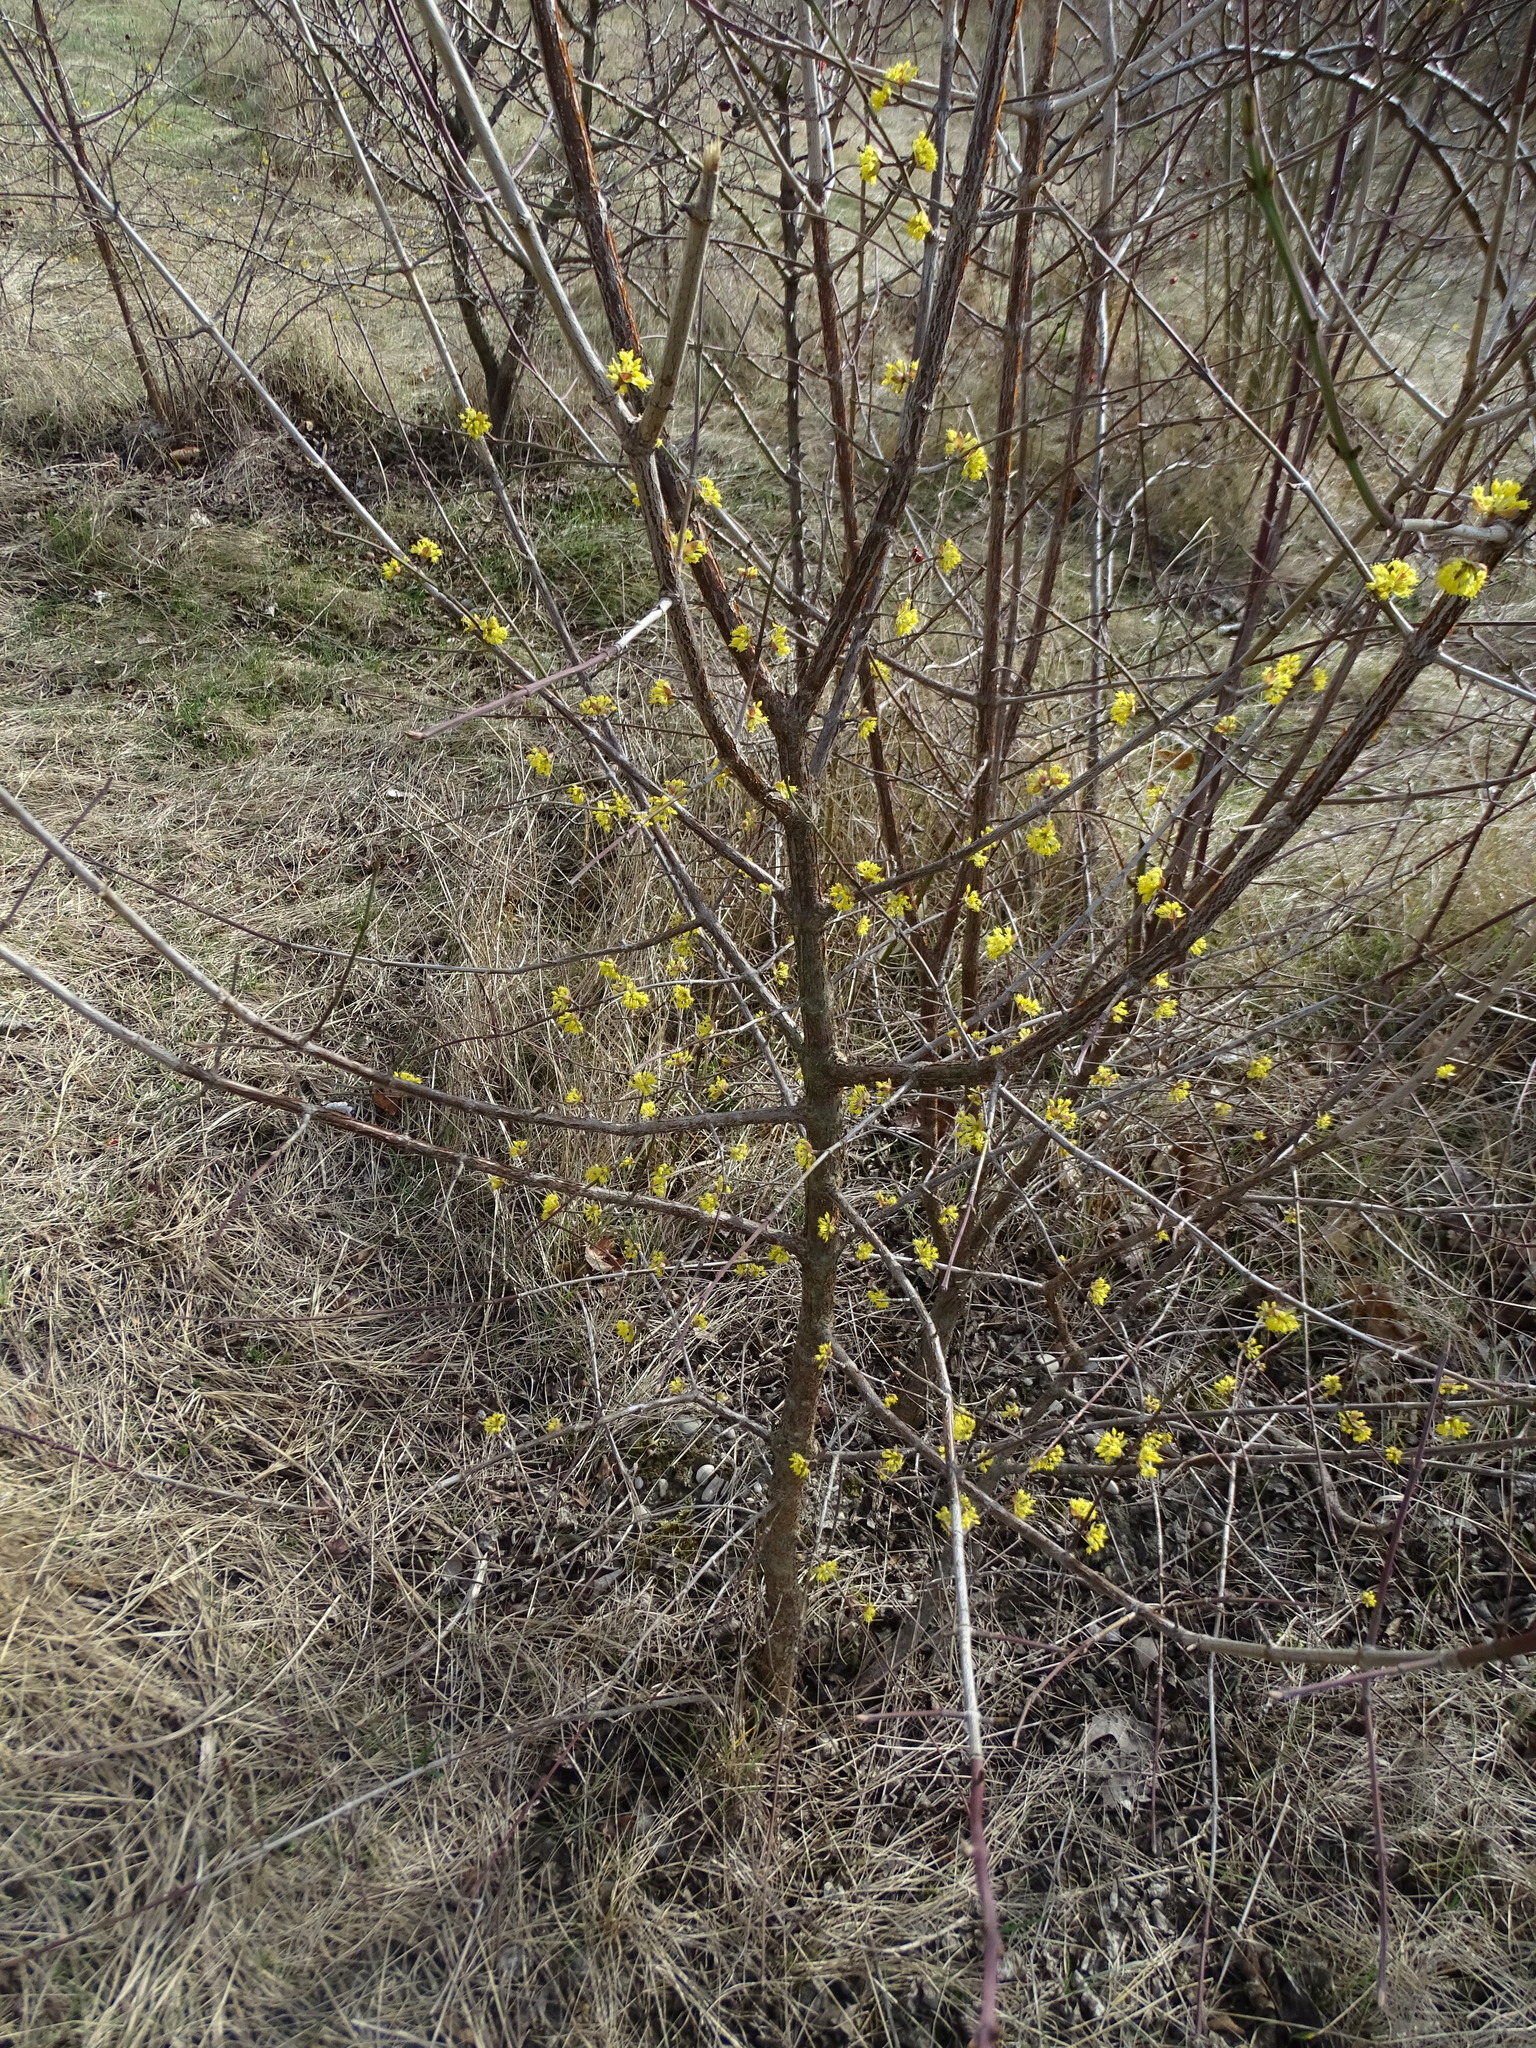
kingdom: Plantae
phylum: Tracheophyta
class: Magnoliopsida
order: Cornales
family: Cornaceae
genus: Cornus
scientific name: Cornus mas
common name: Cornelian-cherry
